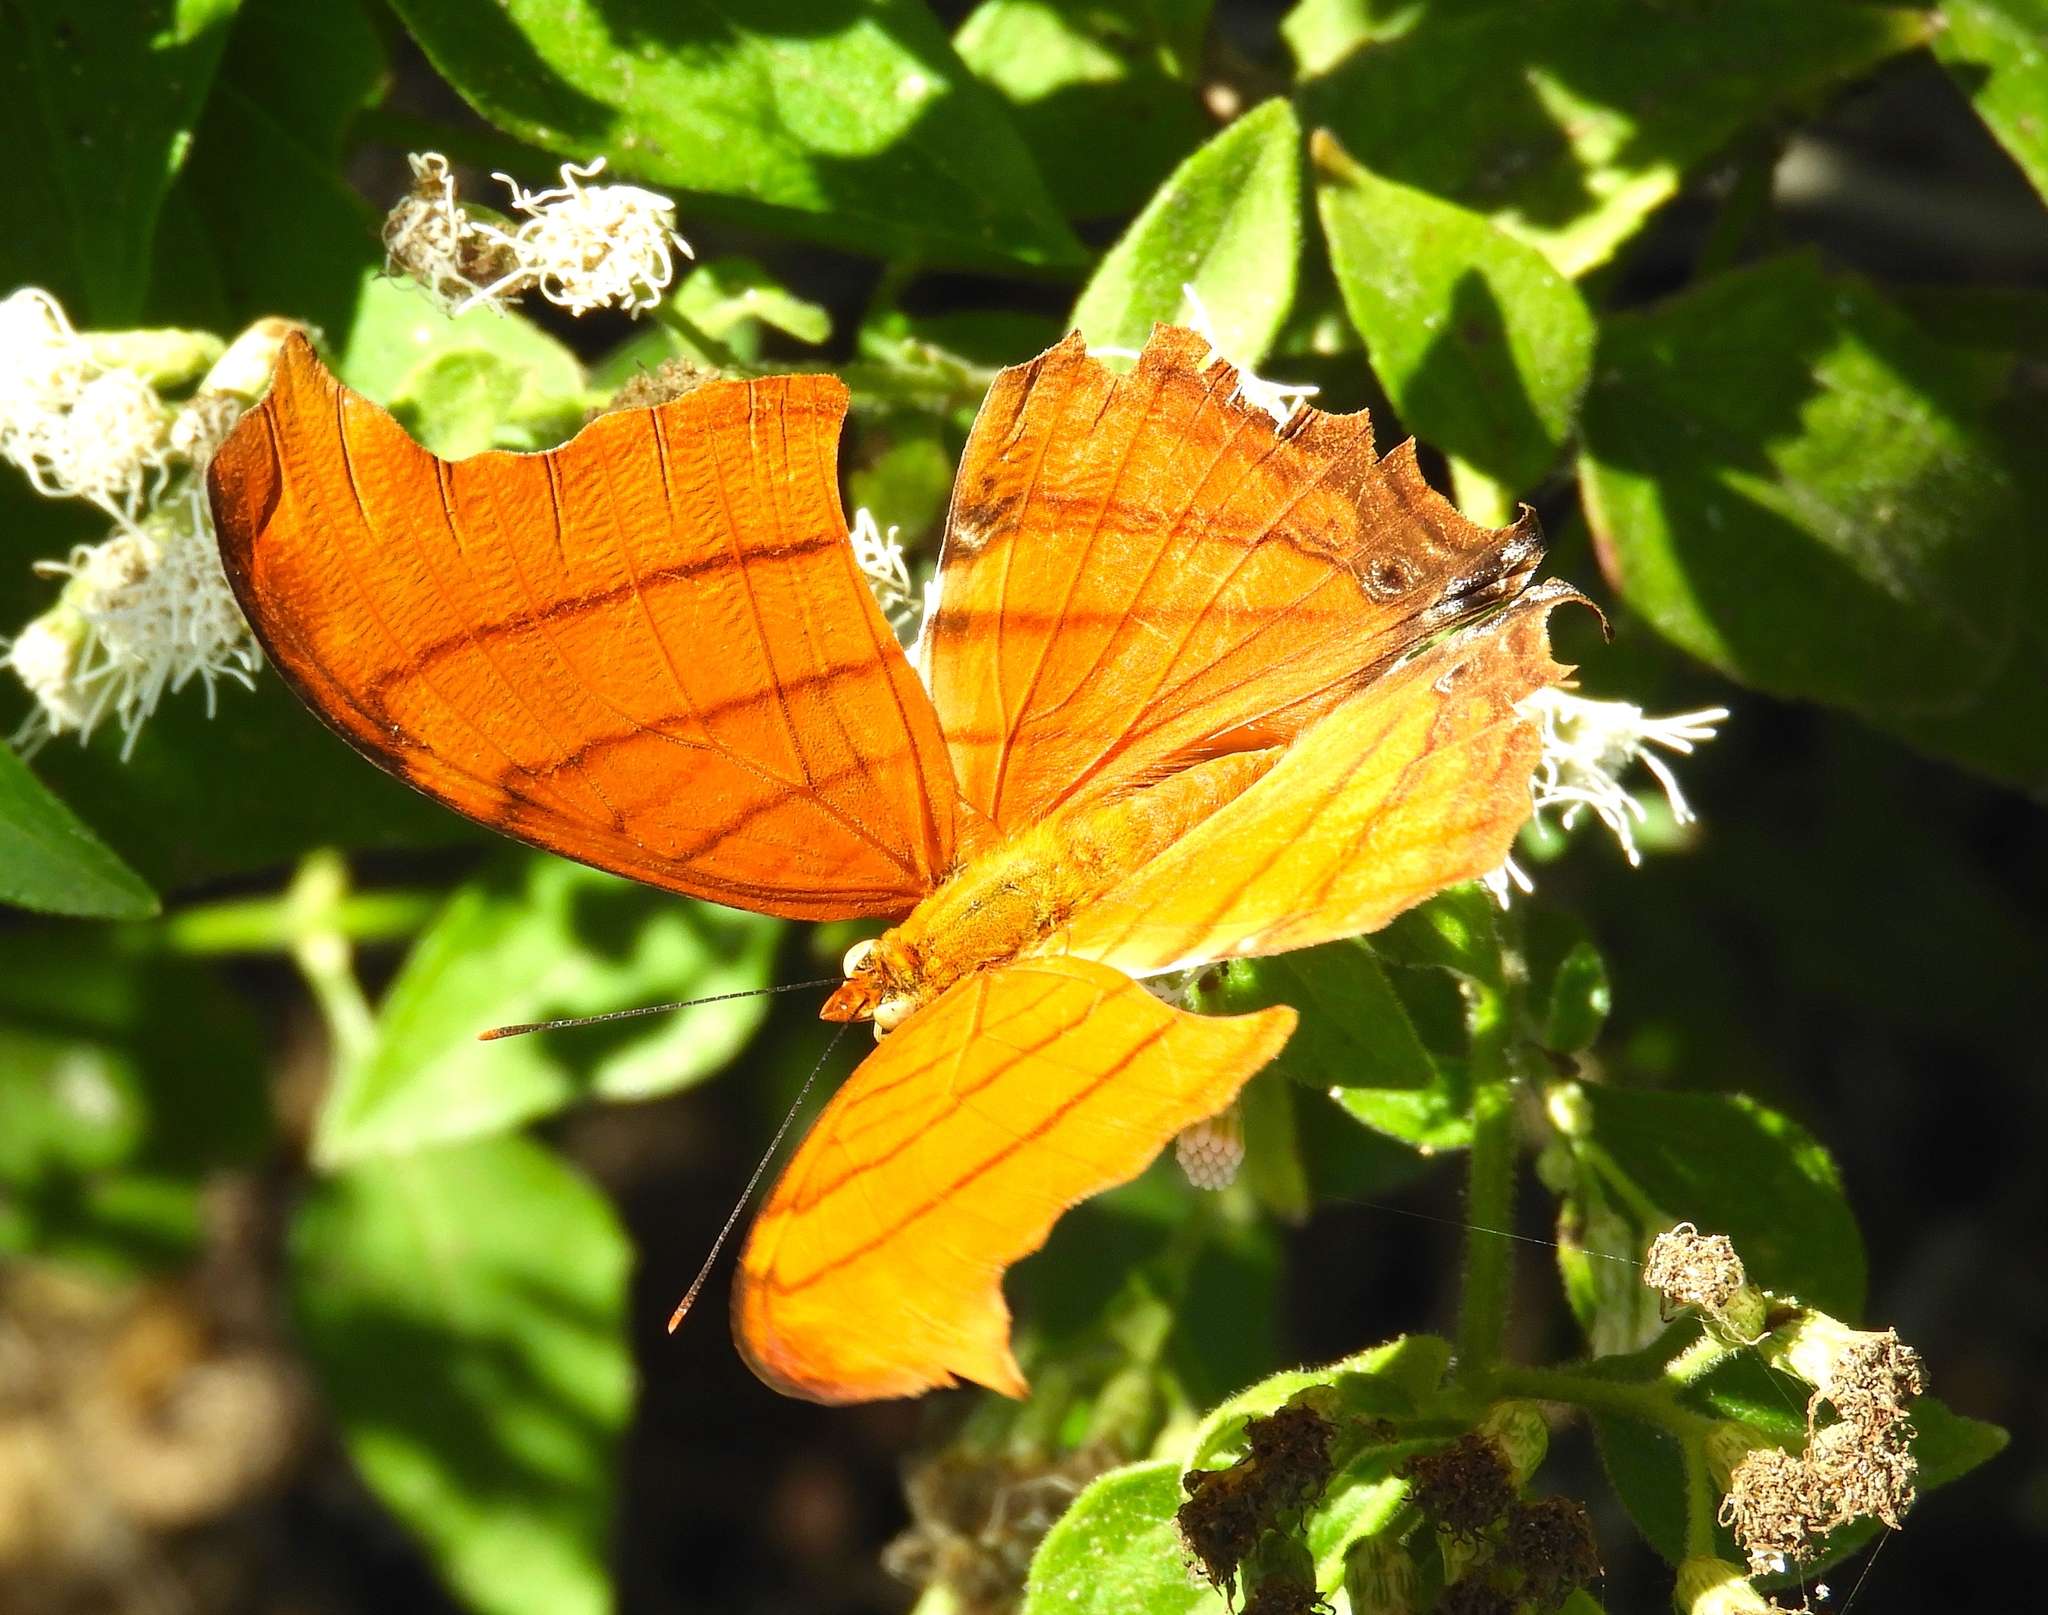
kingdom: Animalia
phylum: Arthropoda
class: Insecta
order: Lepidoptera
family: Nymphalidae
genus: Marpesia
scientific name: Marpesia petreus
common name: Red dagger wing
